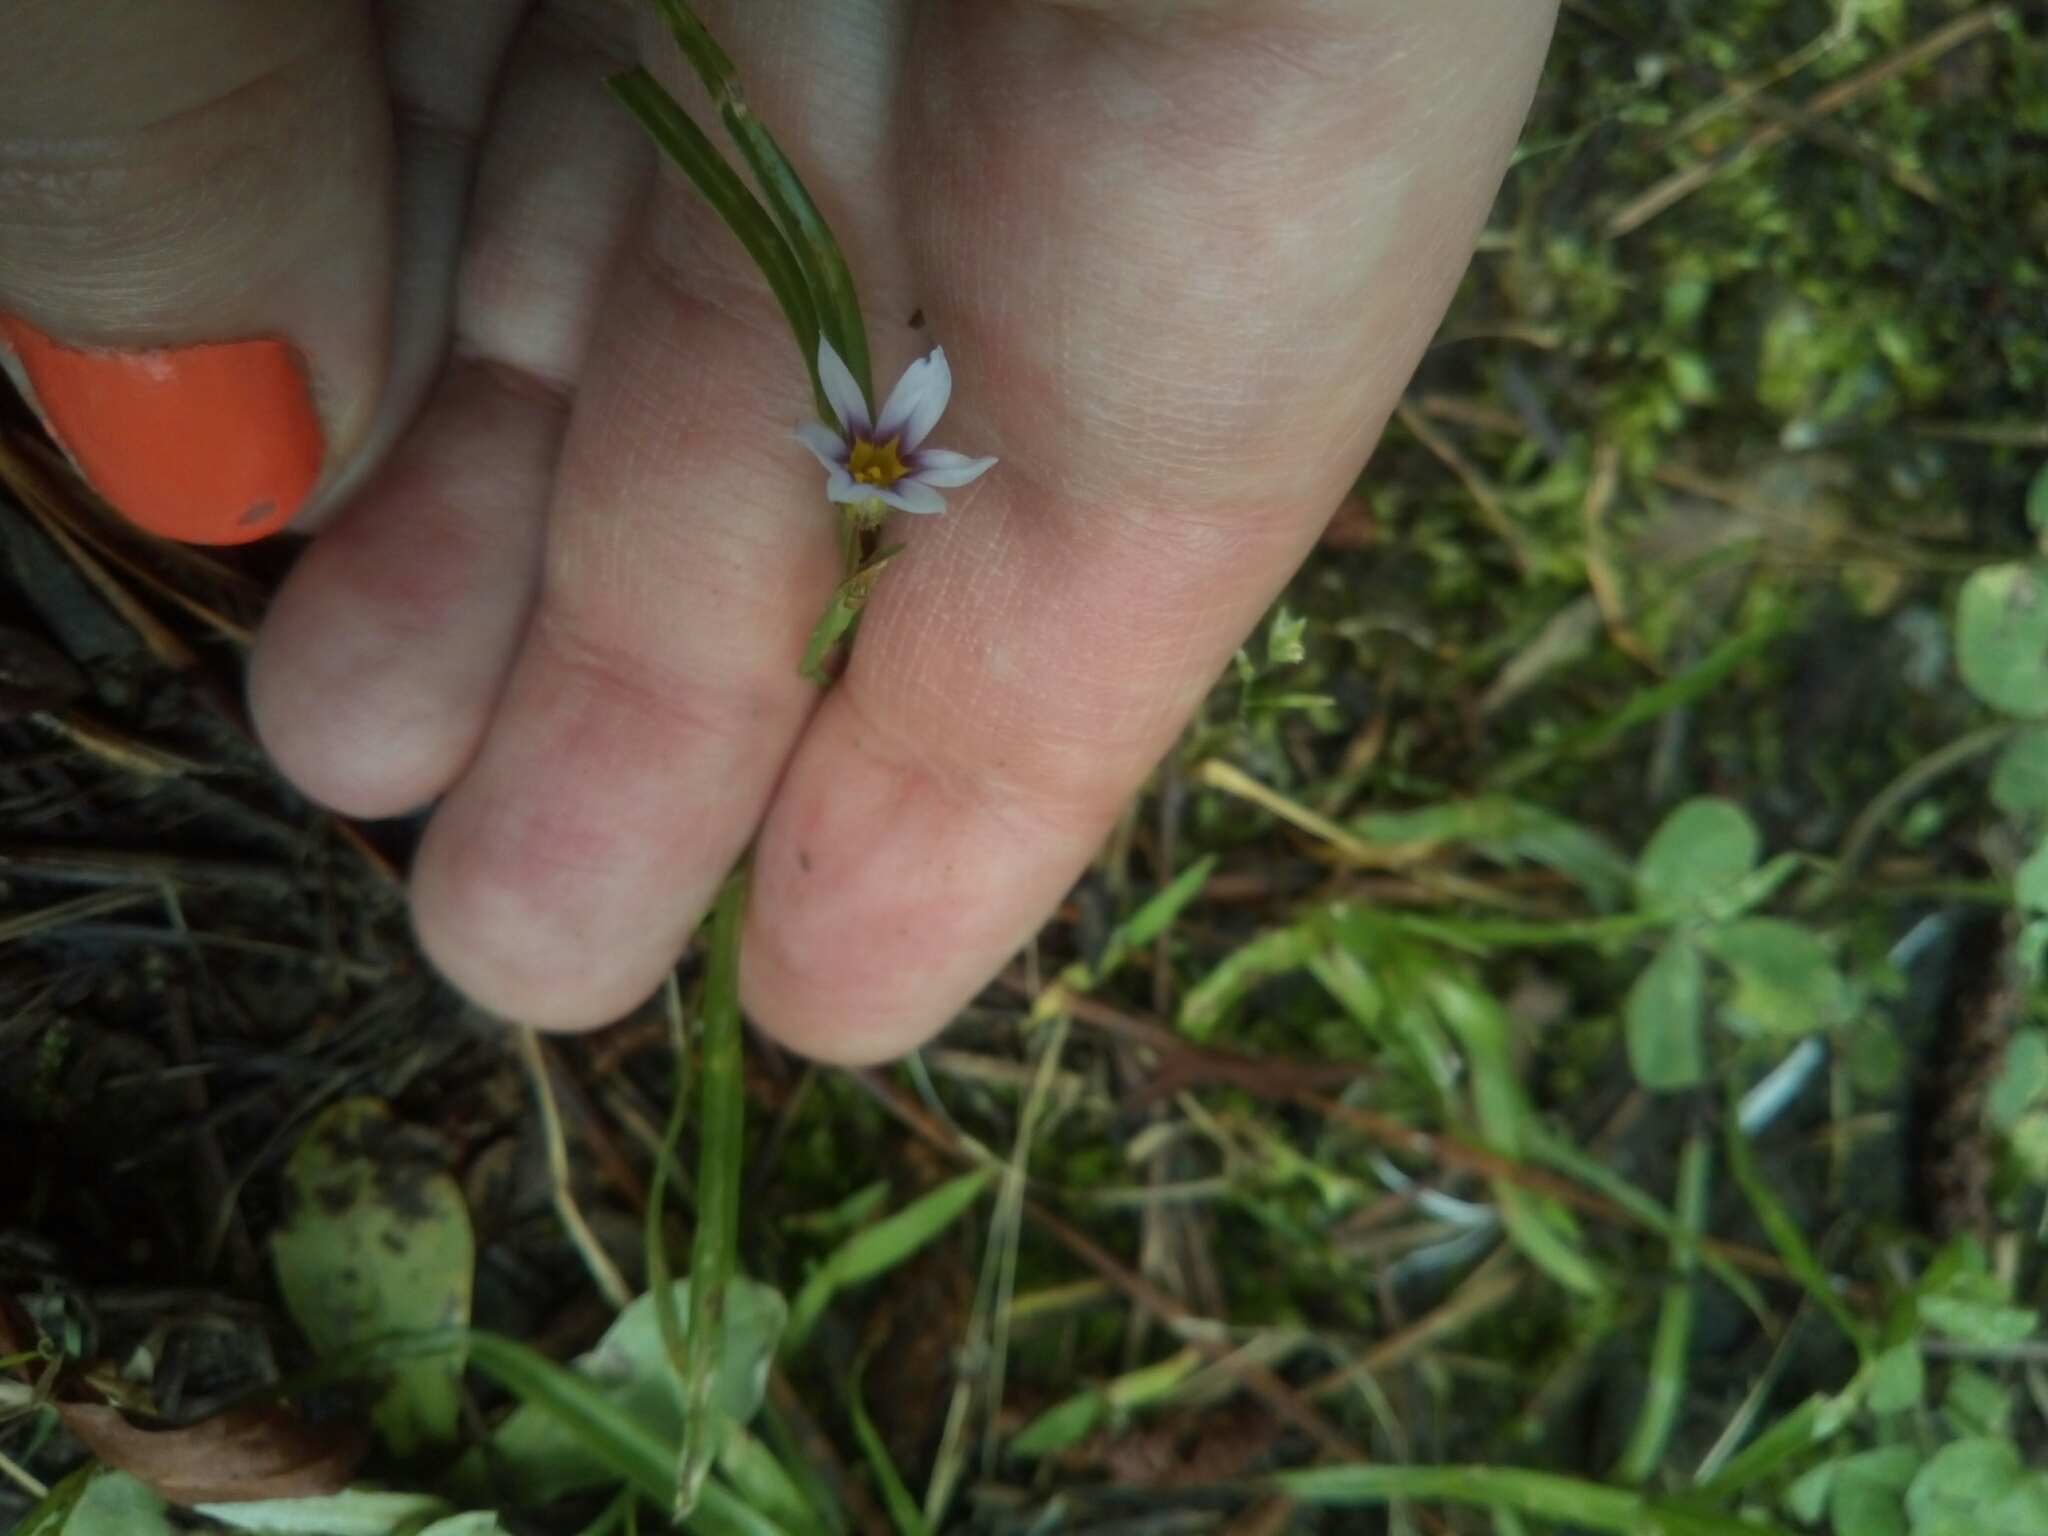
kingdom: Plantae
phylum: Tracheophyta
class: Liliopsida
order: Asparagales
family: Iridaceae
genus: Sisyrinchium
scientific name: Sisyrinchium micranthum
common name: Bermuda pigroot
